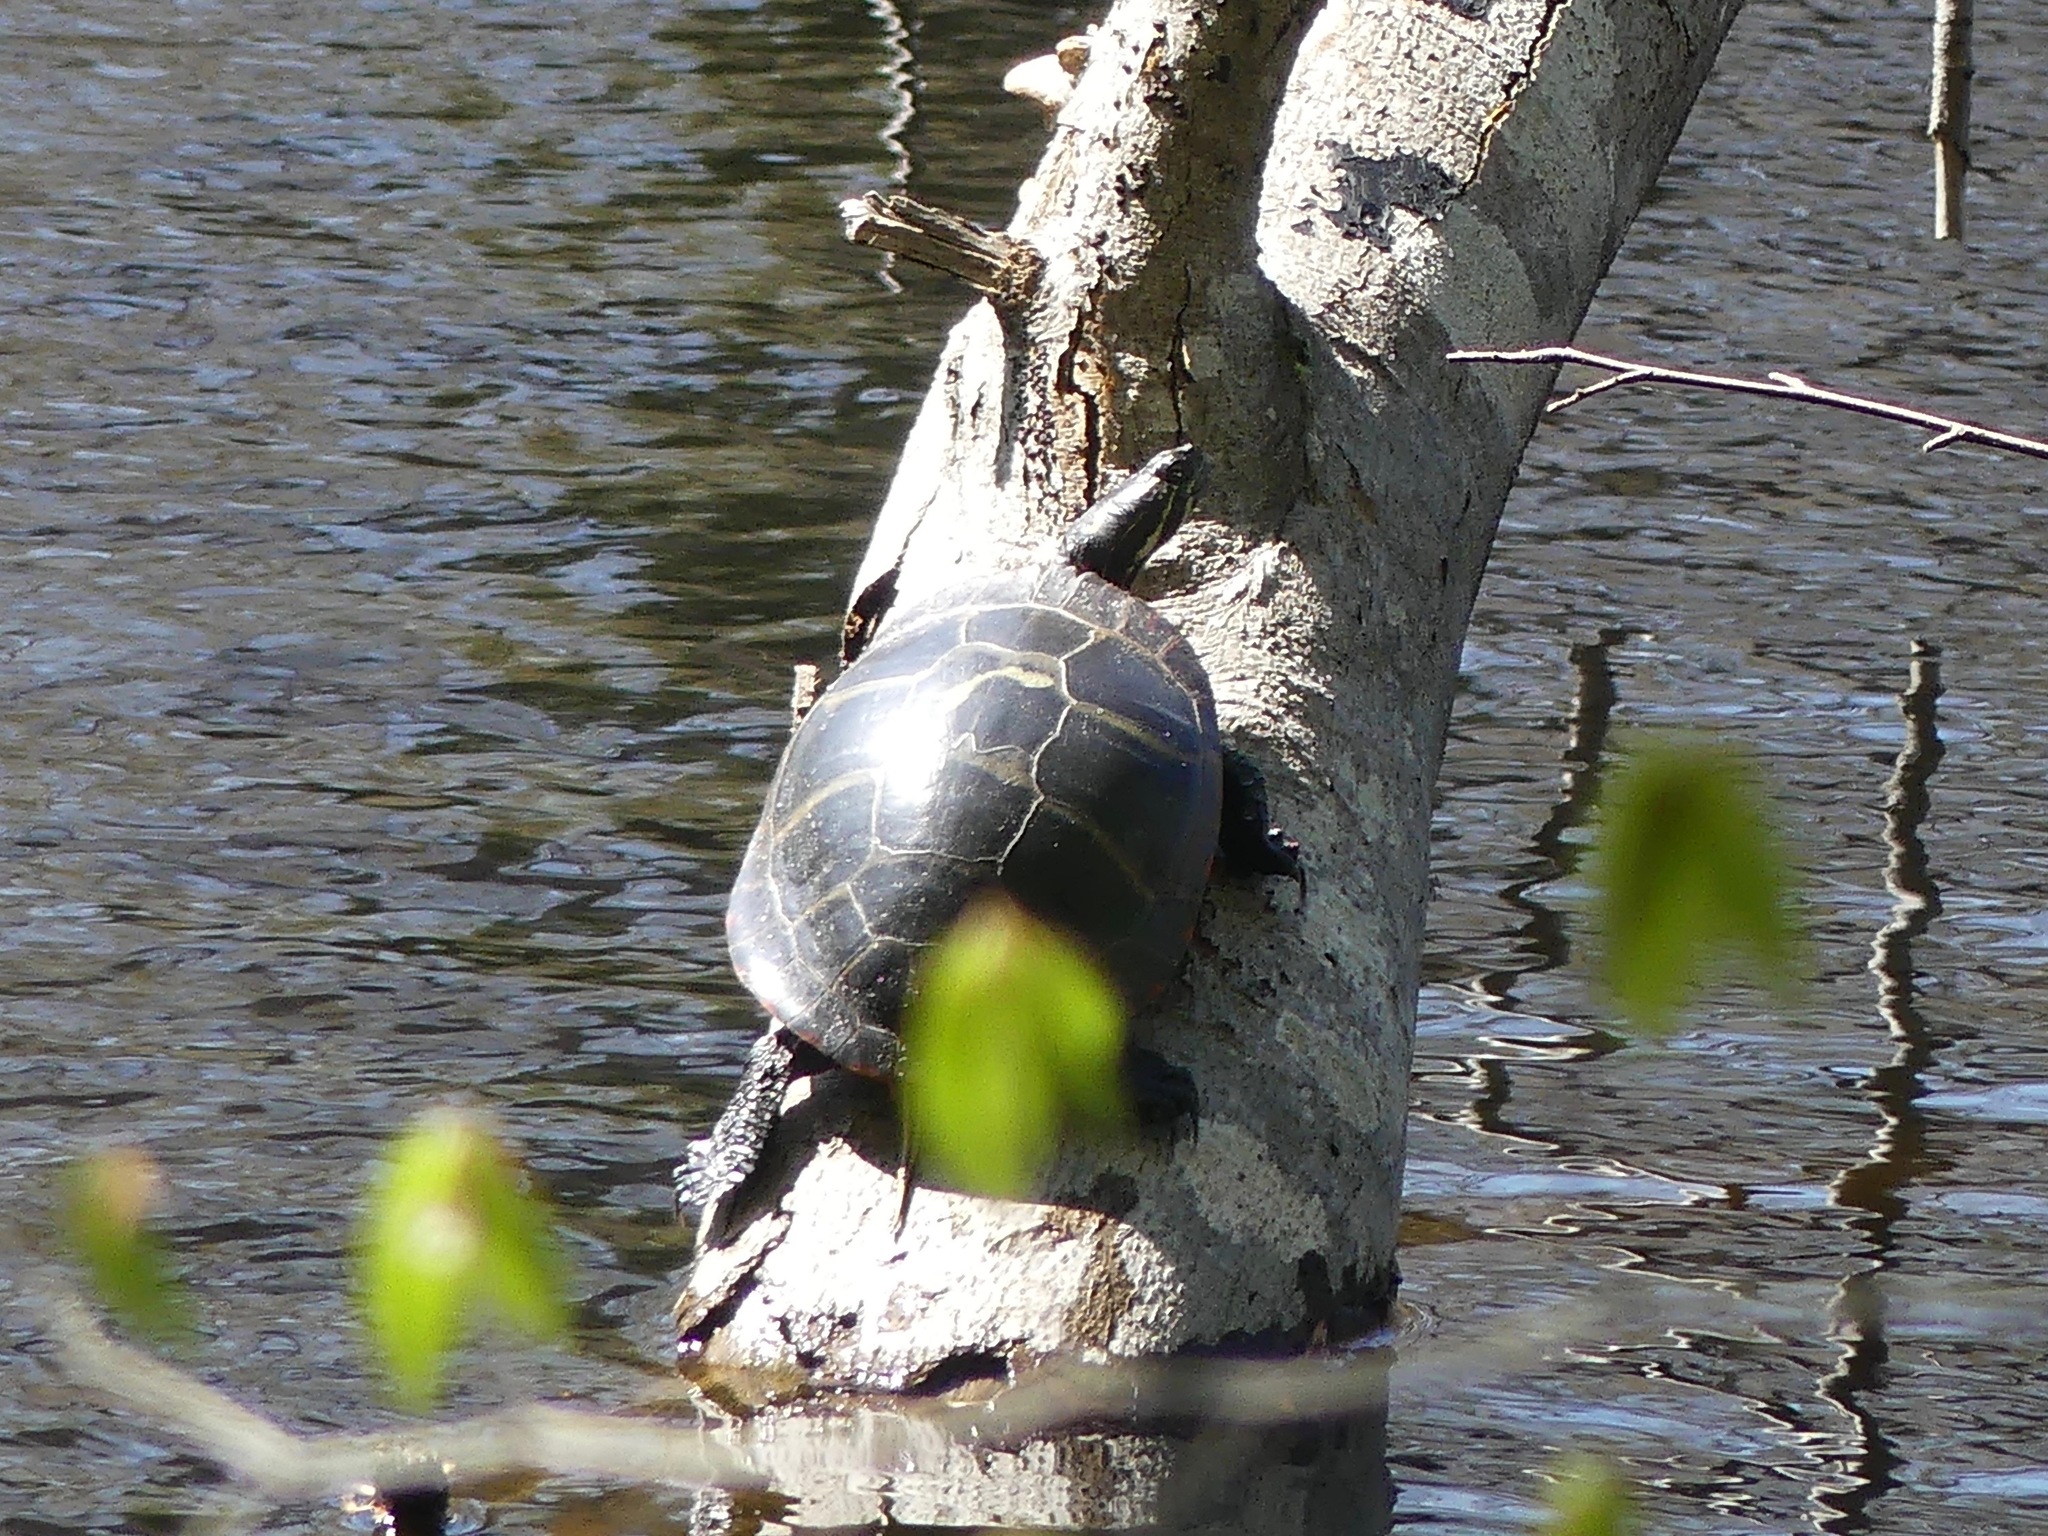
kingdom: Animalia
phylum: Chordata
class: Testudines
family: Emydidae
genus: Chrysemys
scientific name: Chrysemys picta
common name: Painted turtle
